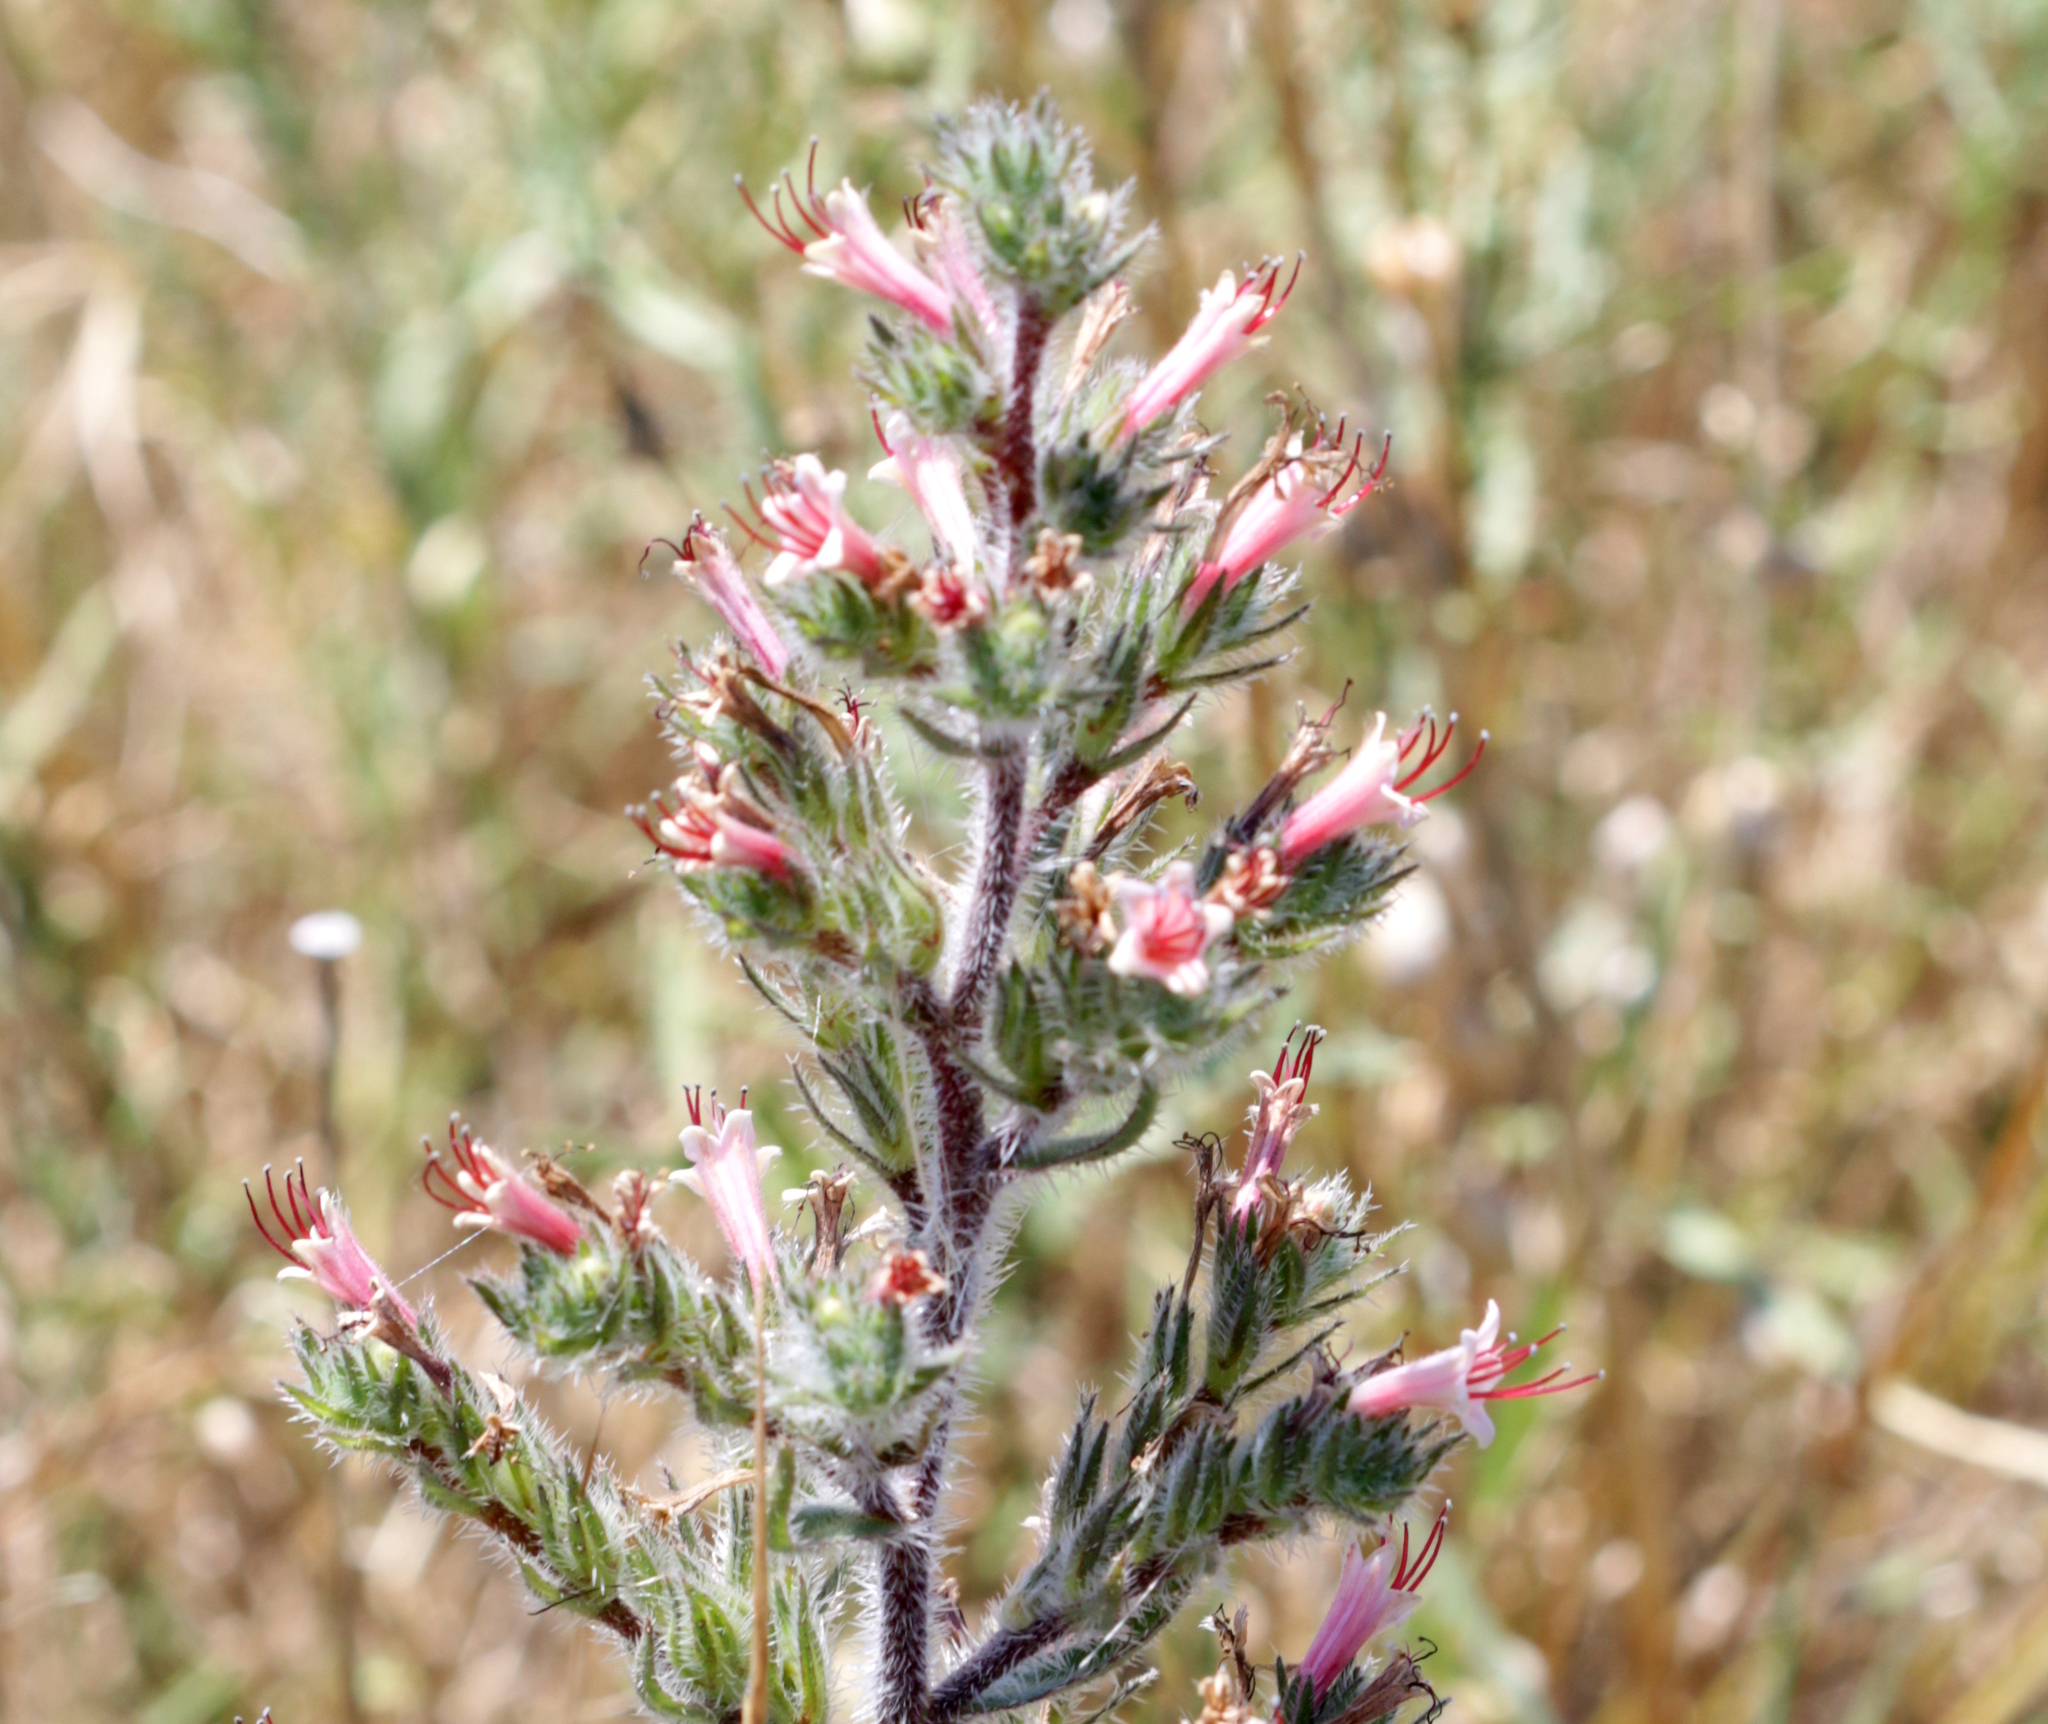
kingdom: Plantae
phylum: Tracheophyta
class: Magnoliopsida
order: Boraginales
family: Boraginaceae
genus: Echium
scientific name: Echium asperrimum
